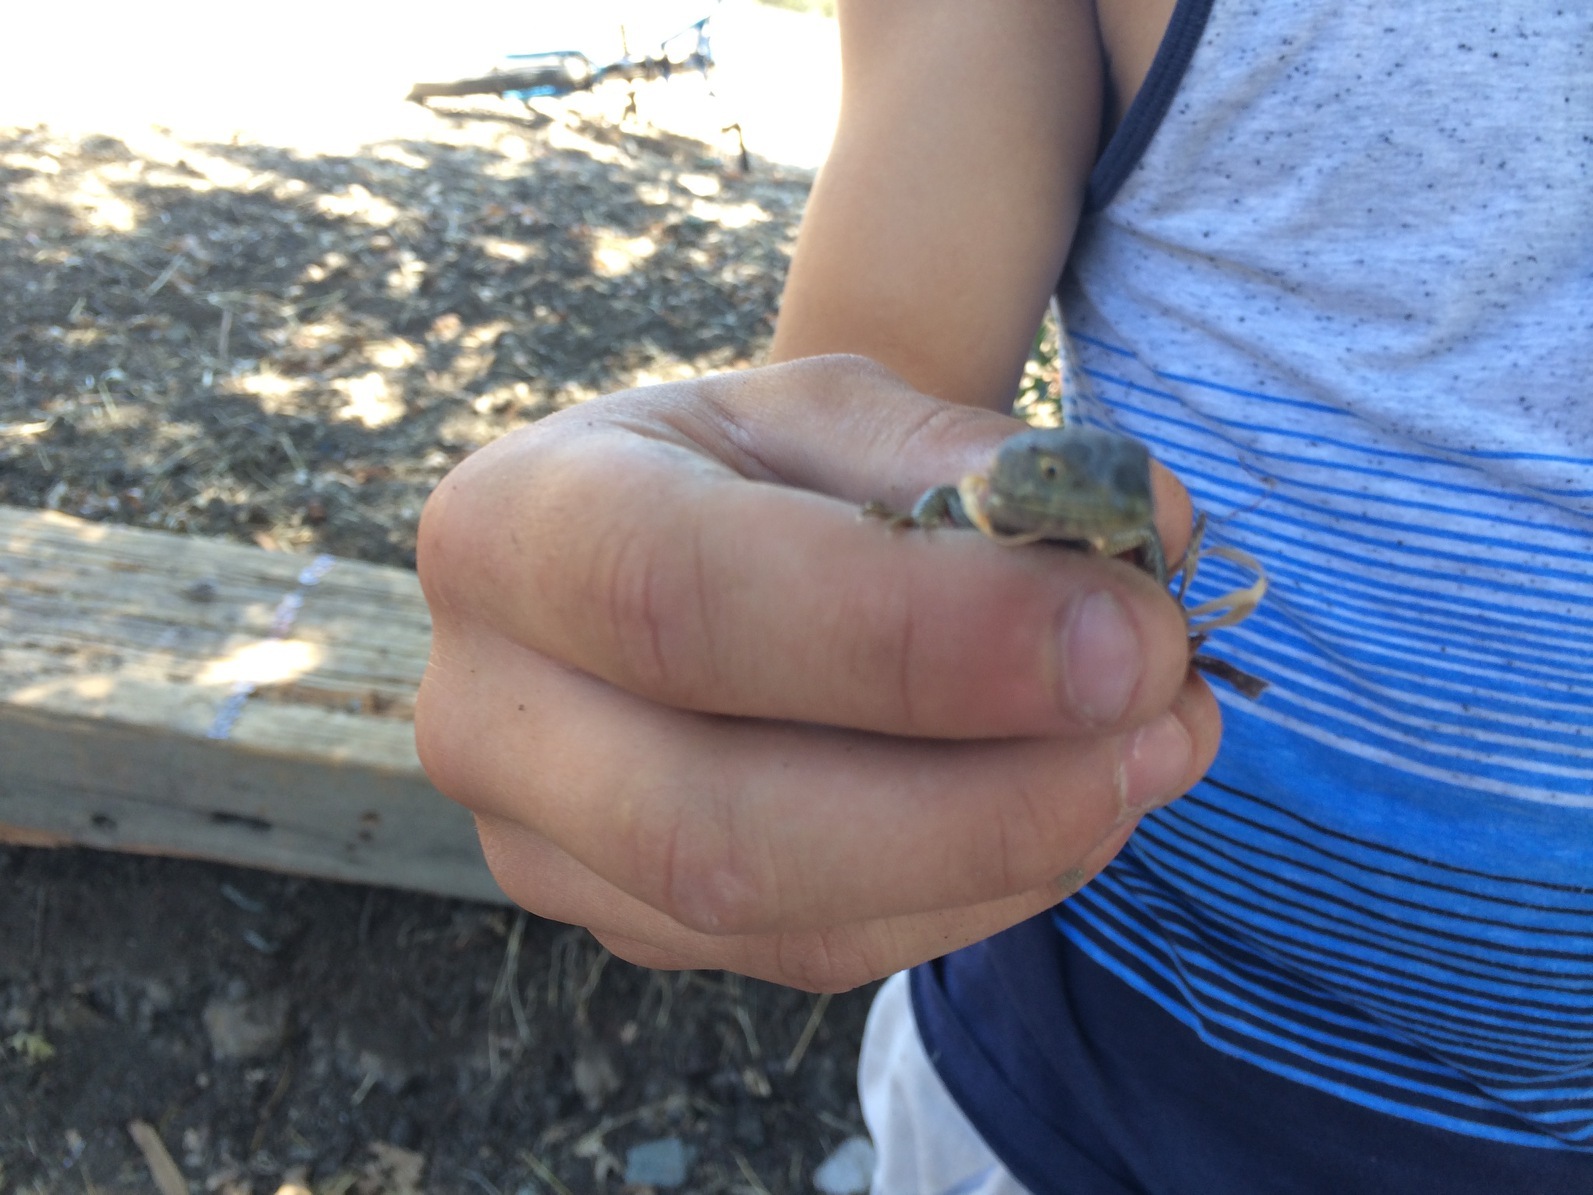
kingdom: Animalia
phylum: Chordata
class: Squamata
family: Anguidae
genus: Elgaria
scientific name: Elgaria multicarinata
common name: Southern alligator lizard
